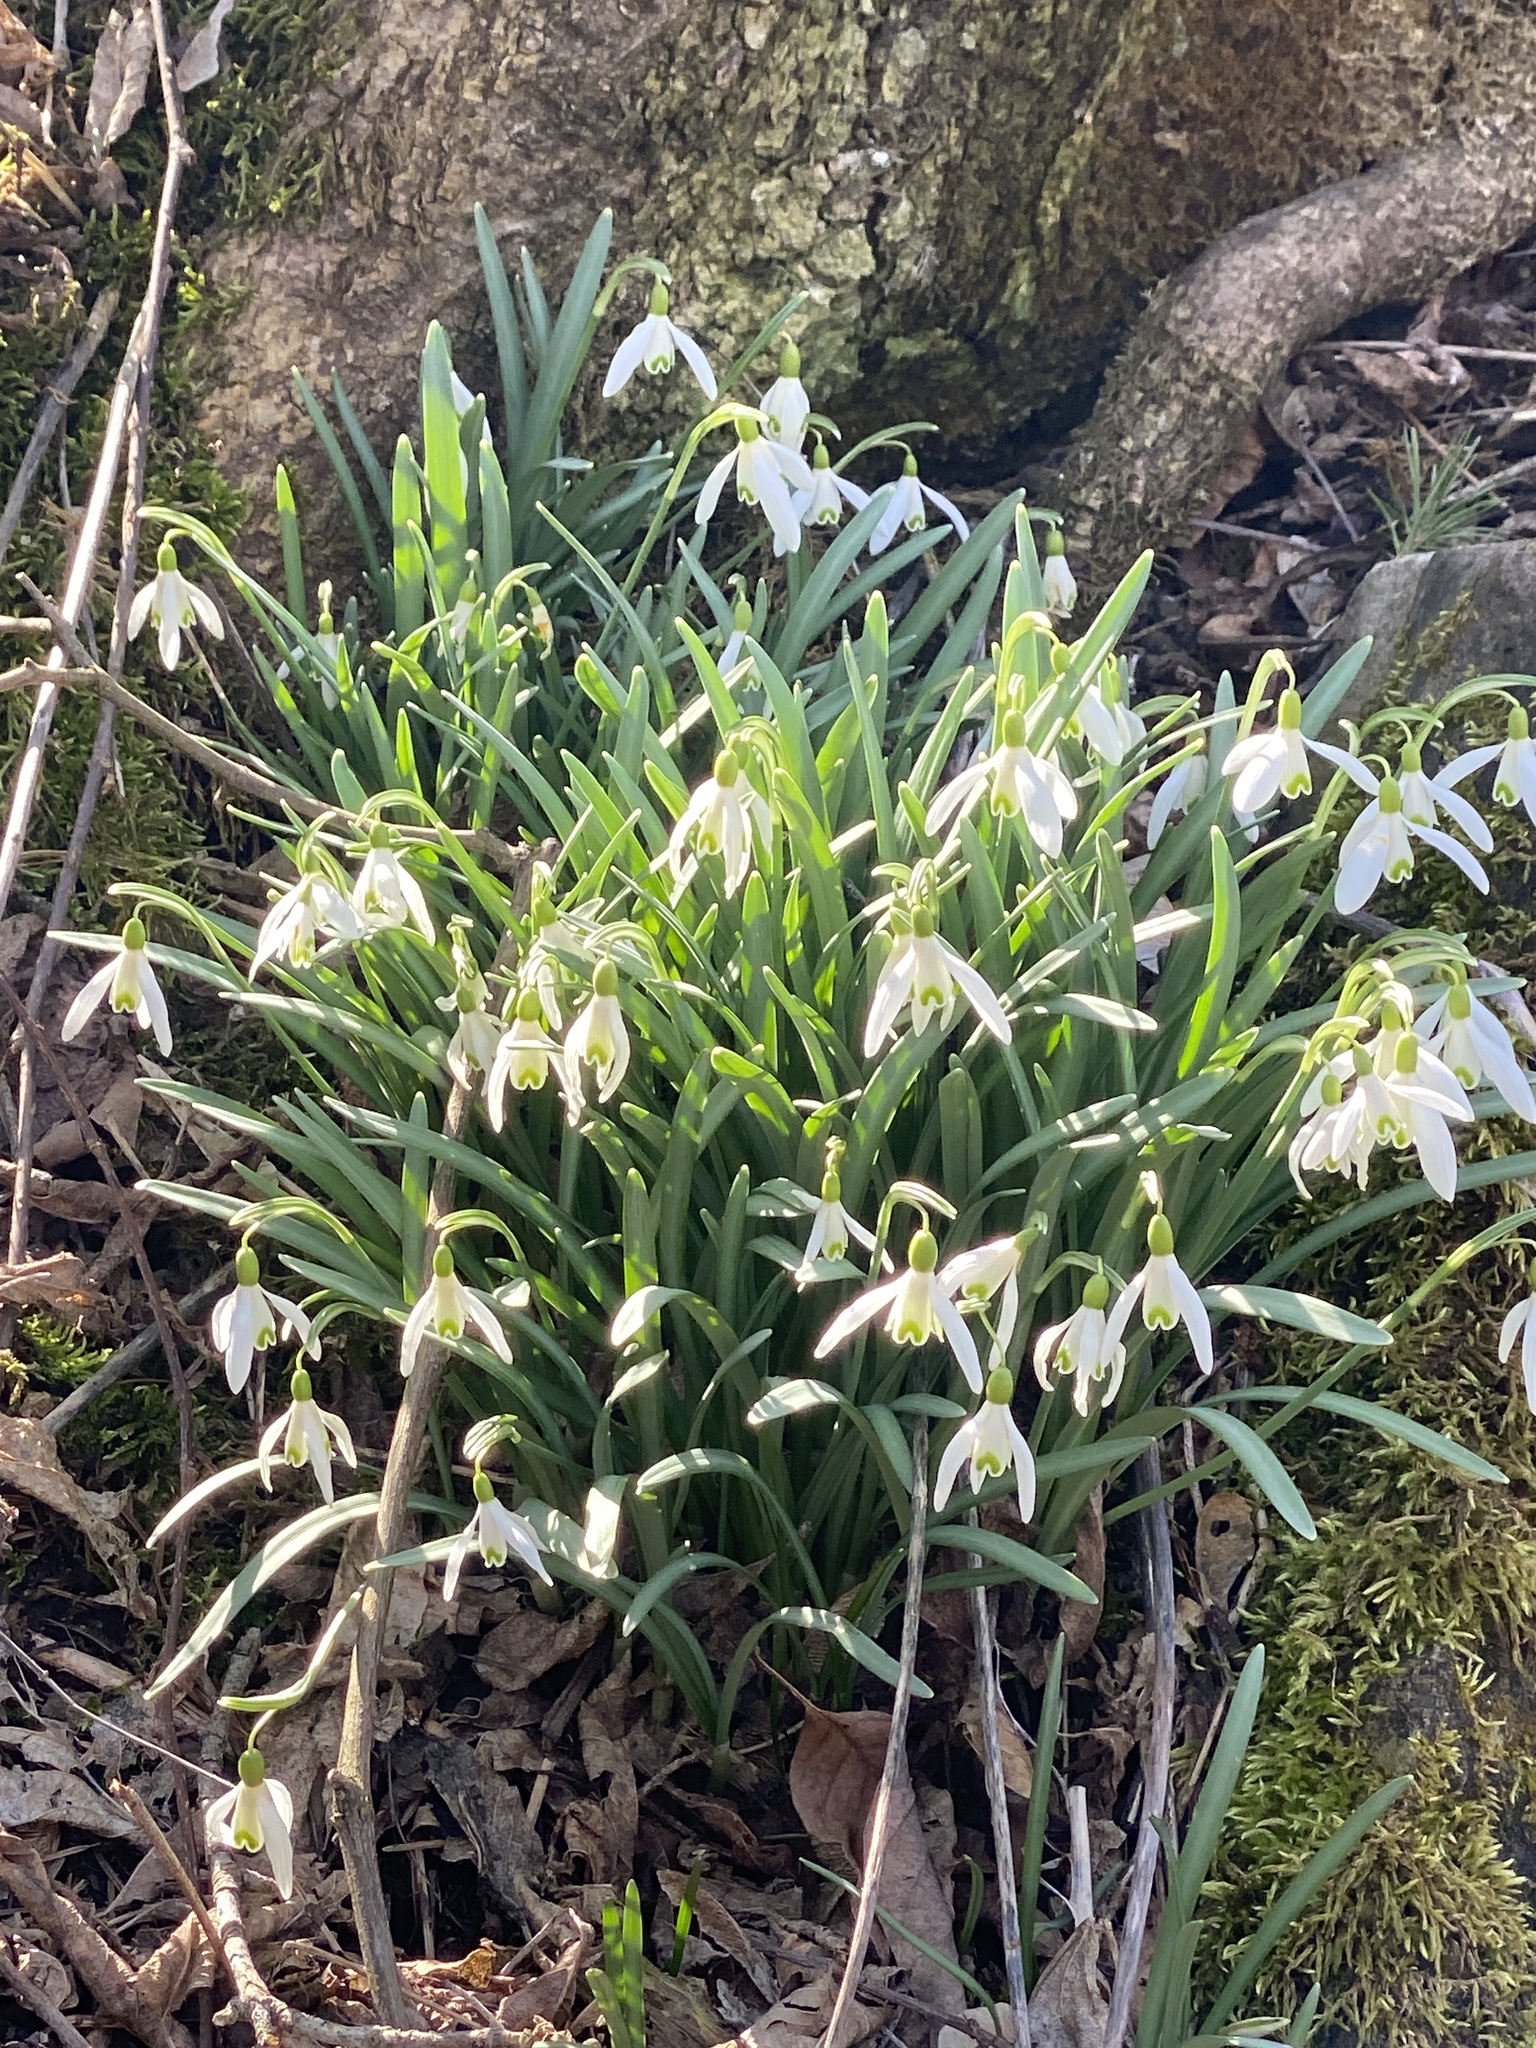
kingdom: Plantae
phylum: Tracheophyta
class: Liliopsida
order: Asparagales
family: Amaryllidaceae
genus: Galanthus
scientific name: Galanthus nivalis
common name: Snowdrop
